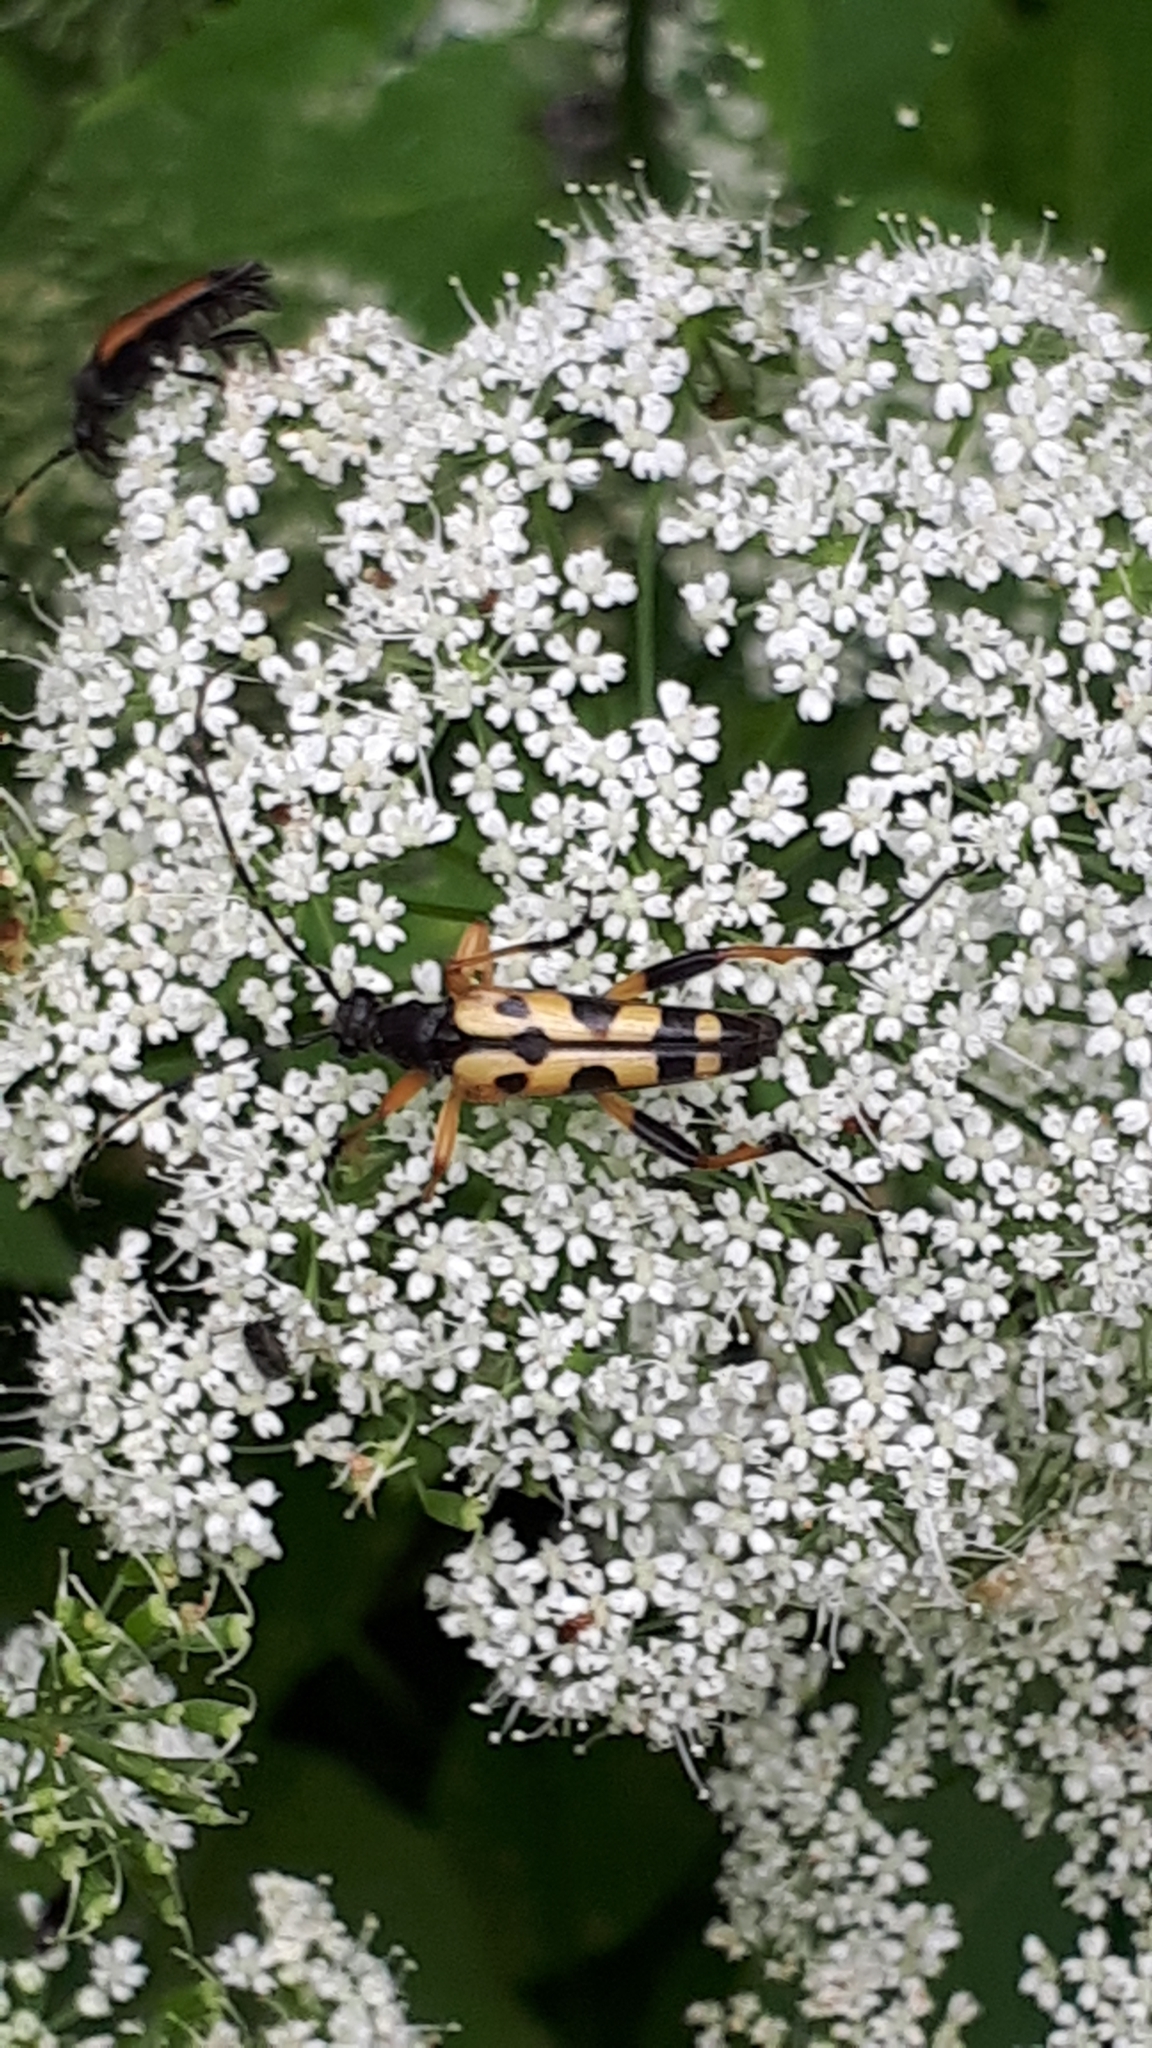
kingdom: Animalia
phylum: Arthropoda
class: Insecta
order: Coleoptera
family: Cerambycidae
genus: Rutpela
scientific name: Rutpela maculata
